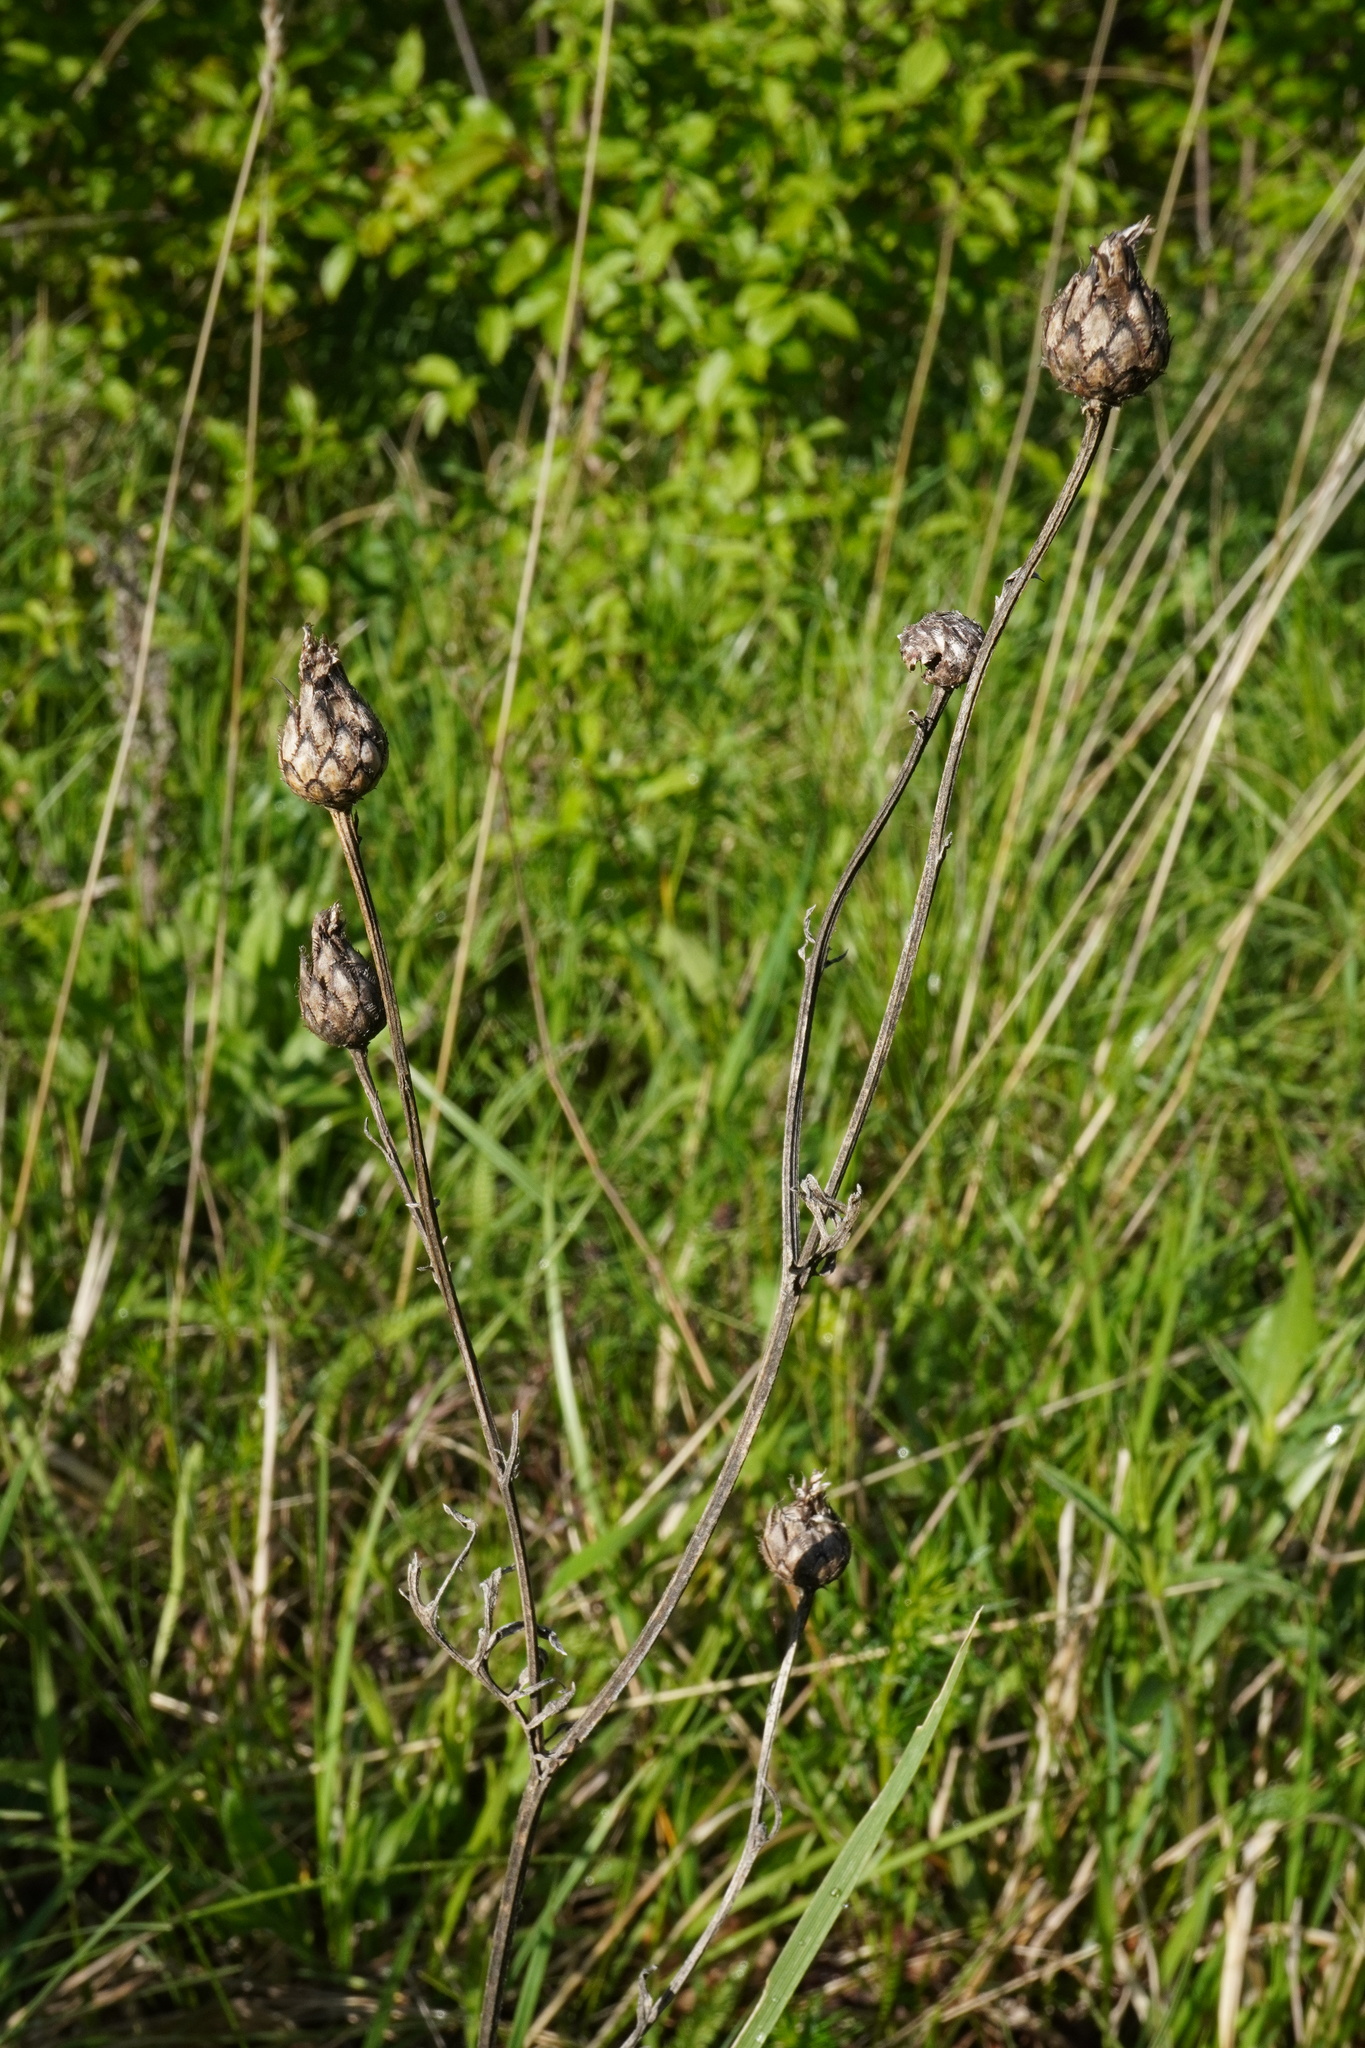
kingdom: Plantae
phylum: Tracheophyta
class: Magnoliopsida
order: Asterales
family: Asteraceae
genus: Centaurea
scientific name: Centaurea scabiosa
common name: Greater knapweed
